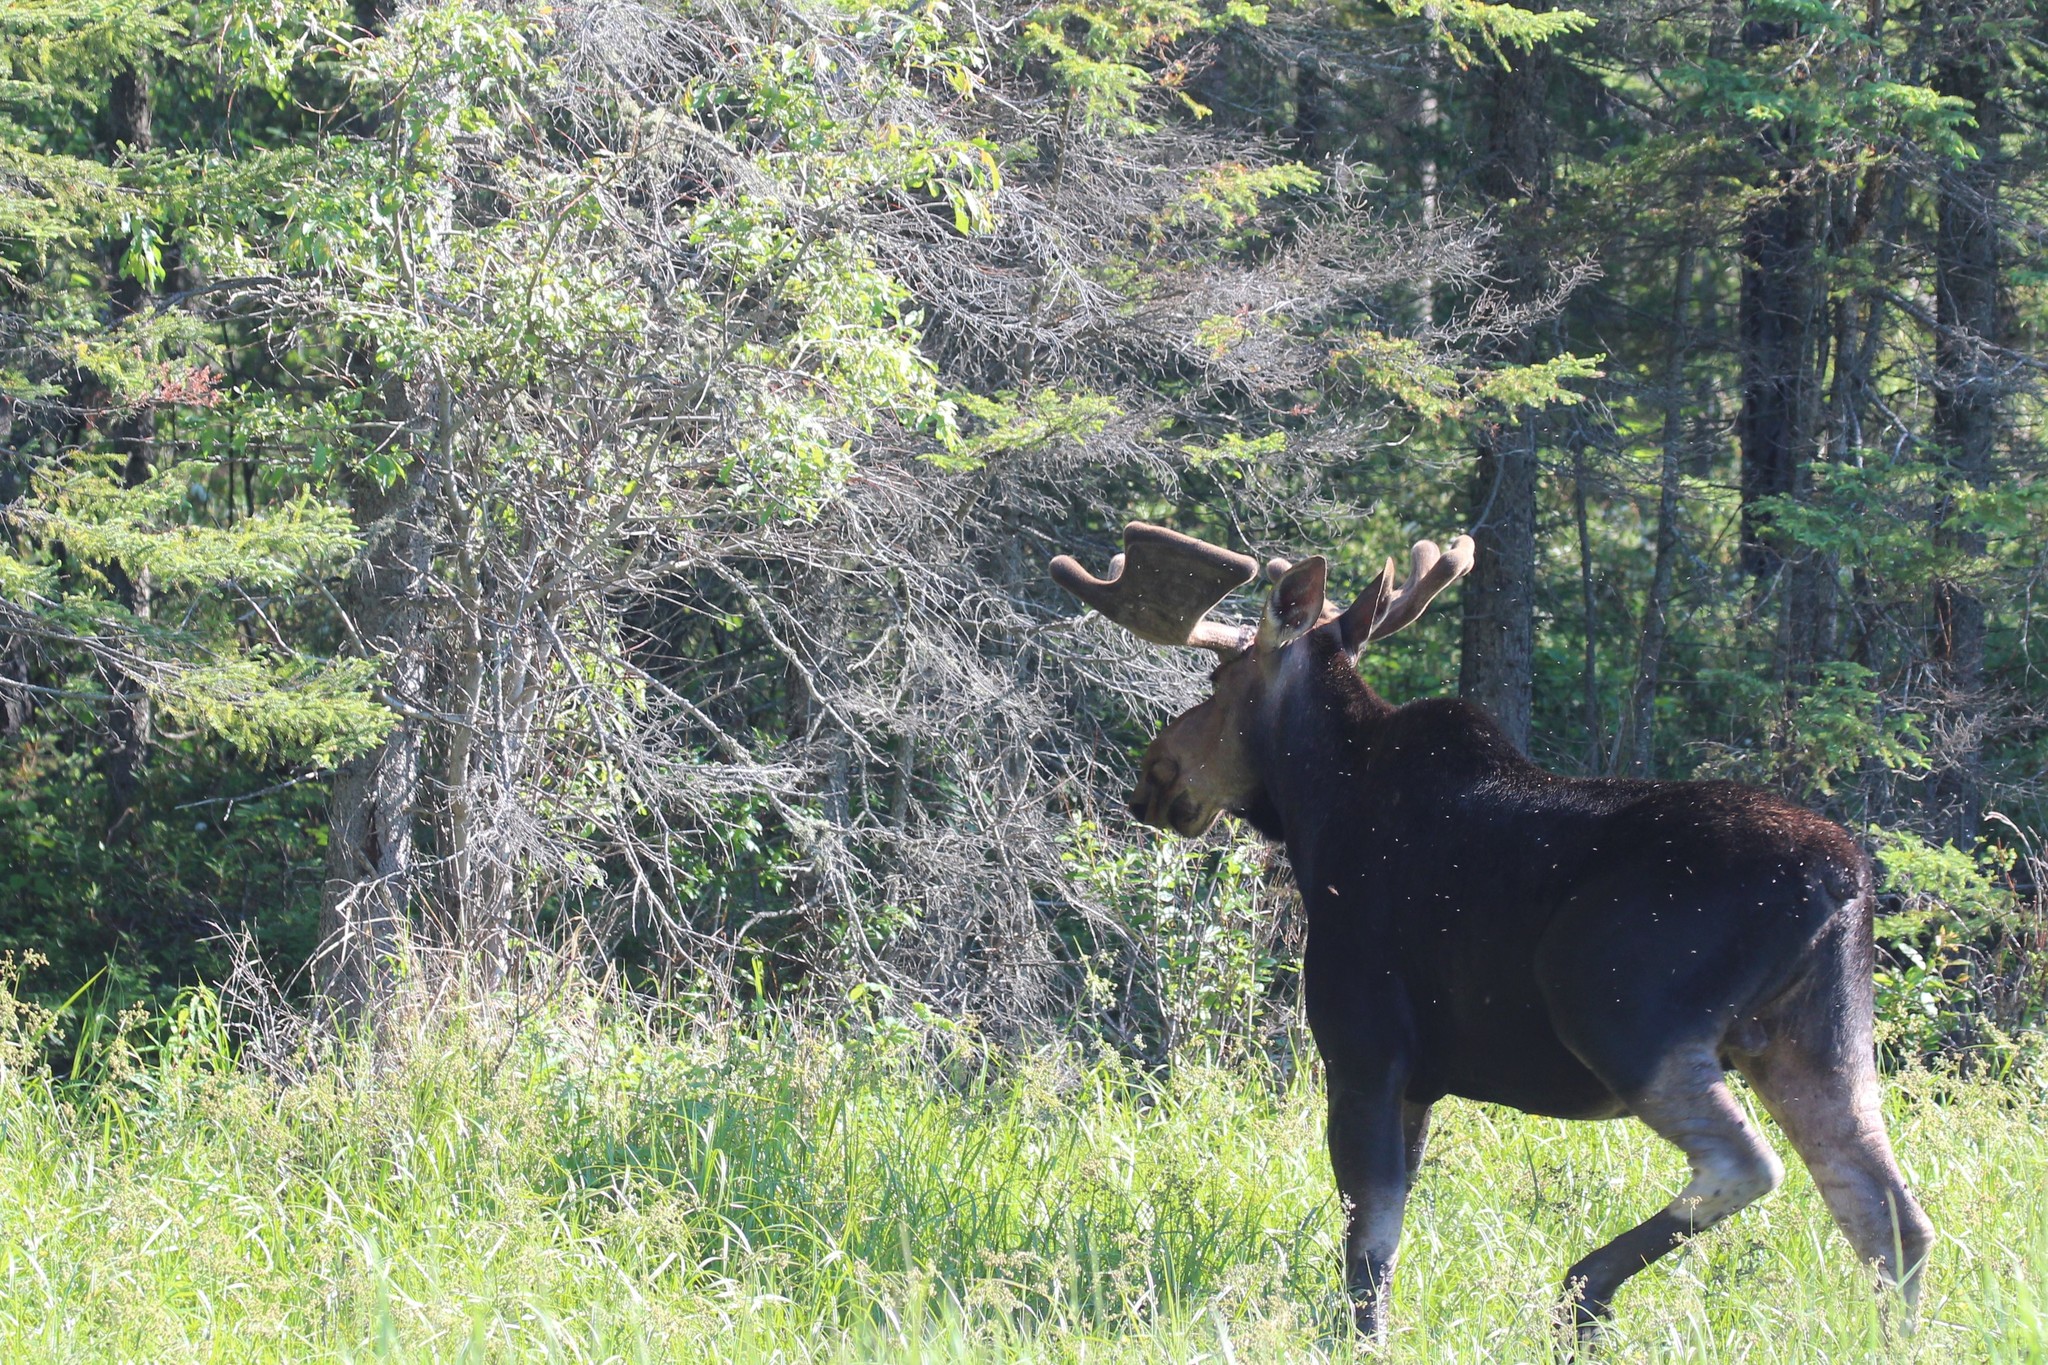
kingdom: Animalia
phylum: Chordata
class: Mammalia
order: Artiodactyla
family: Cervidae
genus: Alces
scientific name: Alces alces
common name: Moose
